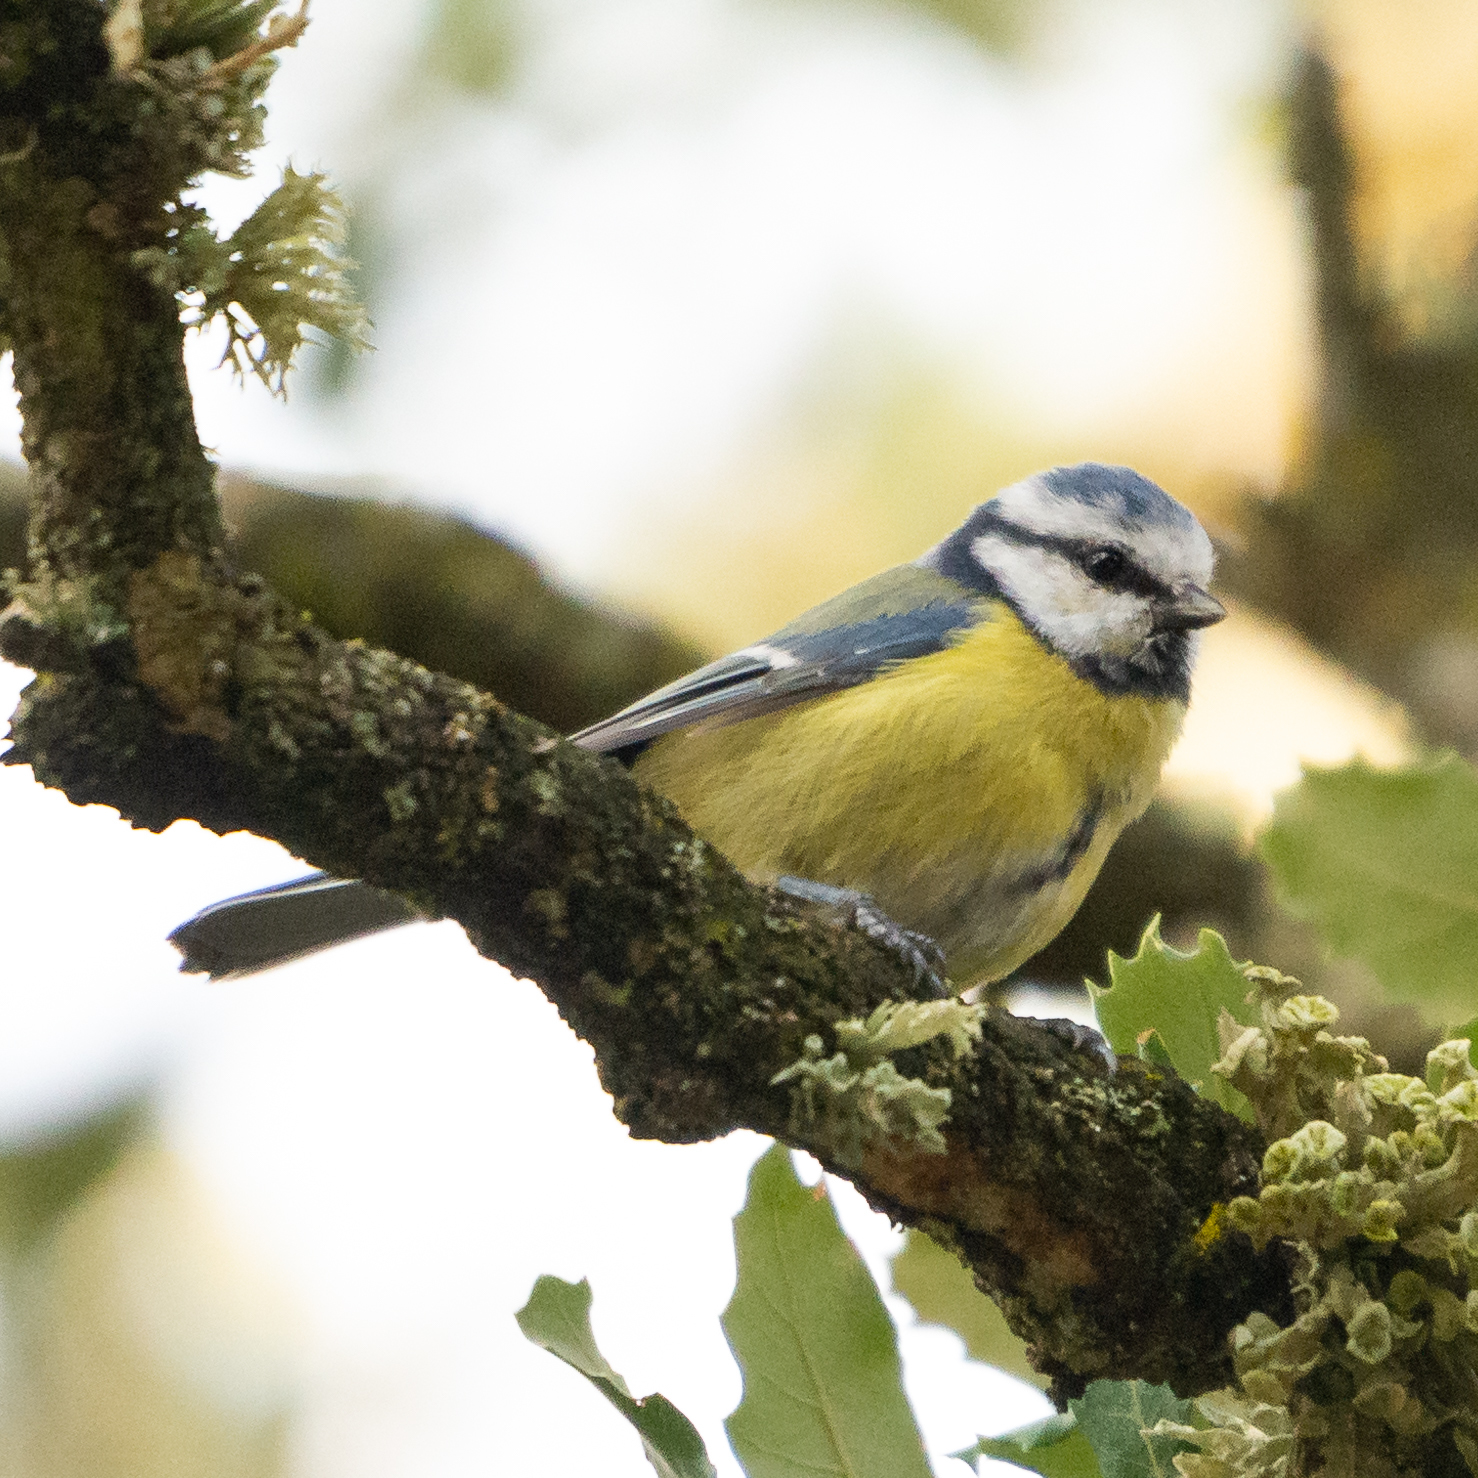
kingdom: Animalia
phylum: Chordata
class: Aves
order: Passeriformes
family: Paridae
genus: Cyanistes
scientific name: Cyanistes caeruleus
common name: Eurasian blue tit
